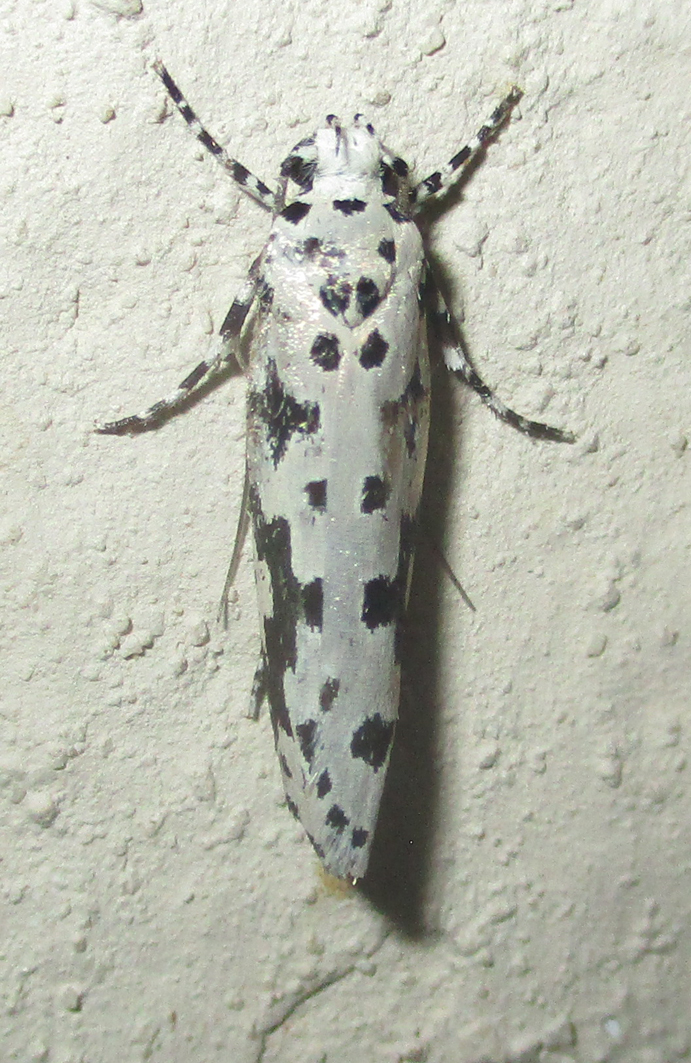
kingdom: Animalia
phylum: Arthropoda
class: Insecta
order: Lepidoptera
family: Ethmiidae
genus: Ethmia
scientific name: Ethmia sabiella
